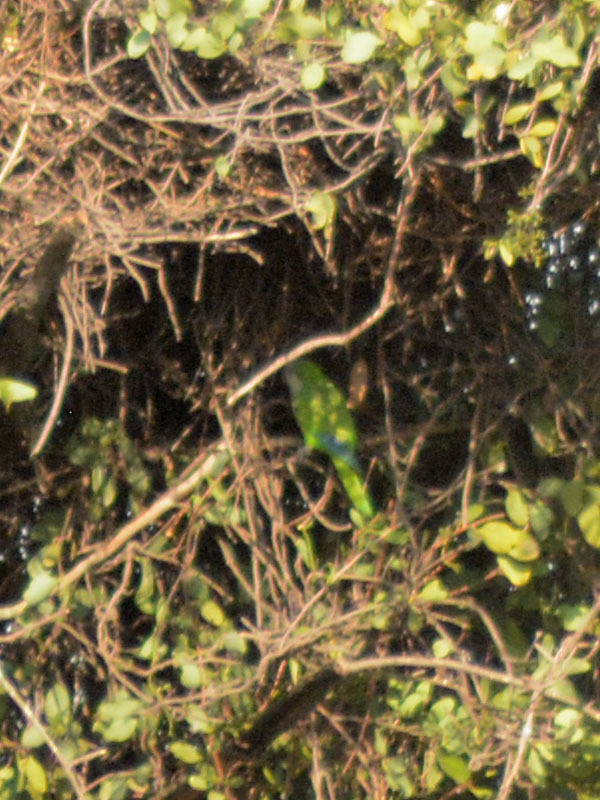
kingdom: Animalia
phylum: Chordata
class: Aves
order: Psittaciformes
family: Psittacidae
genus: Myiopsitta
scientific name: Myiopsitta monachus
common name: Monk parakeet
